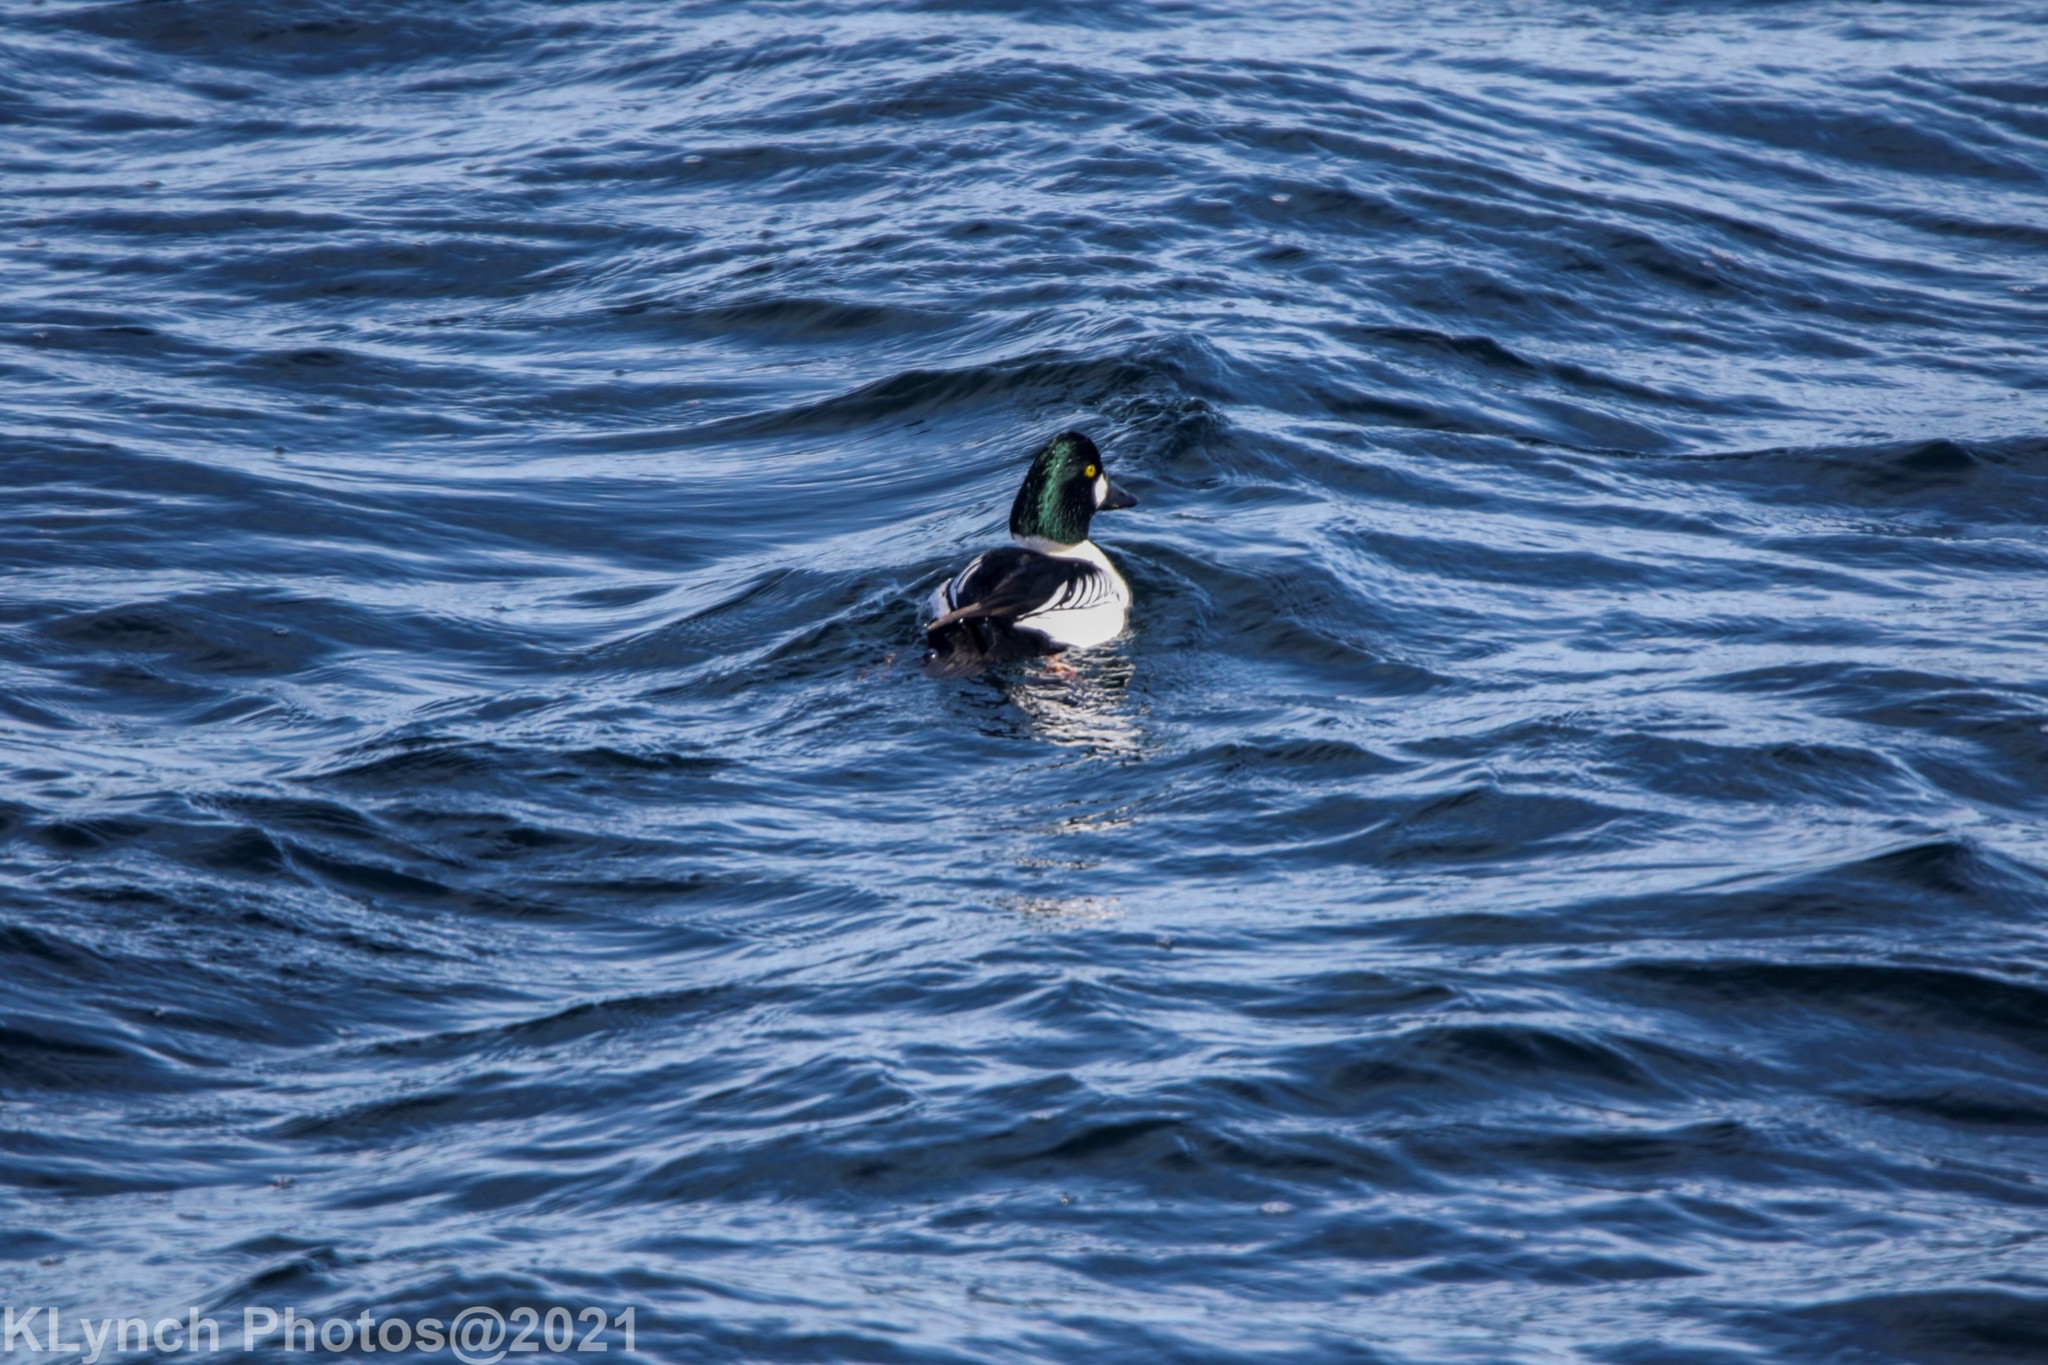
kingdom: Animalia
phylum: Chordata
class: Aves
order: Anseriformes
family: Anatidae
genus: Bucephala
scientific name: Bucephala clangula
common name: Common goldeneye
